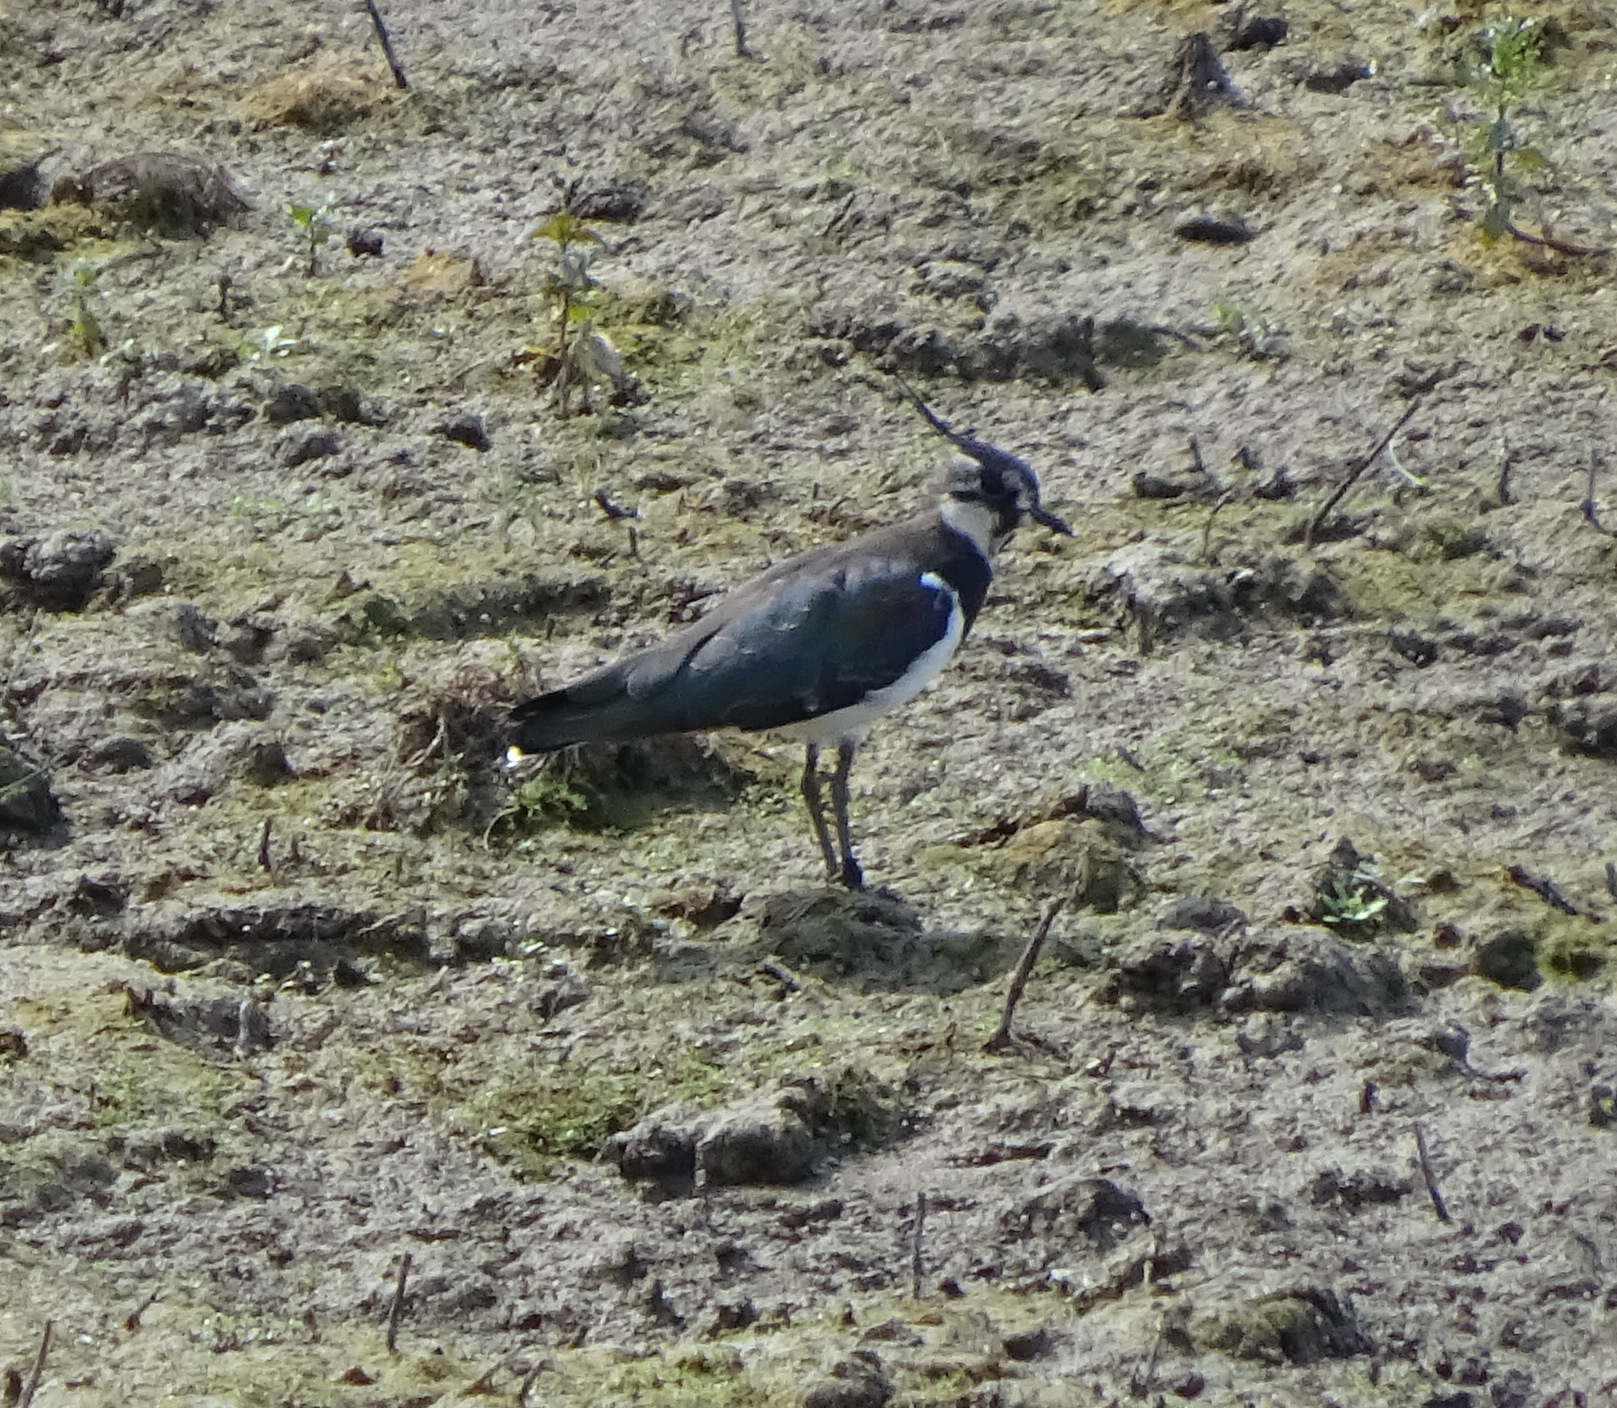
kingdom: Animalia
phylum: Chordata
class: Aves
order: Charadriiformes
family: Charadriidae
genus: Vanellus
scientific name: Vanellus vanellus
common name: Northern lapwing
